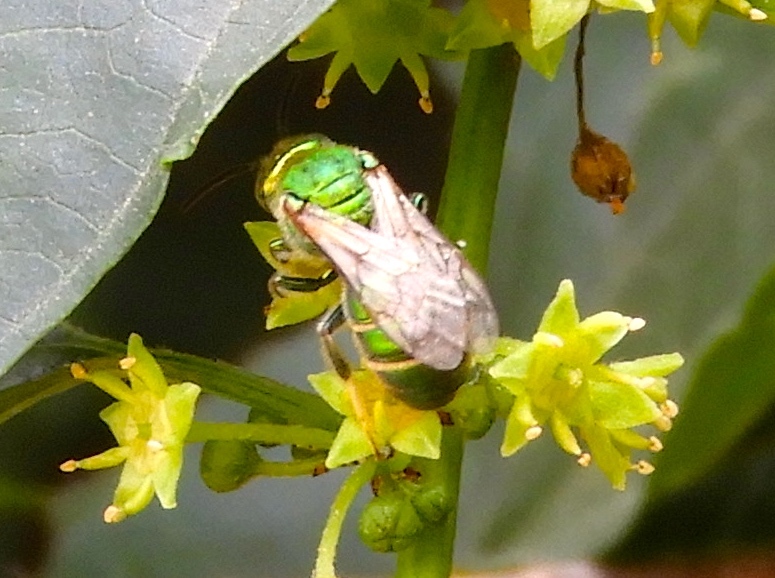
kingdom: Animalia
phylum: Arthropoda
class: Insecta
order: Hymenoptera
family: Halictidae
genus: Augochloropsis
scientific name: Augochloropsis
